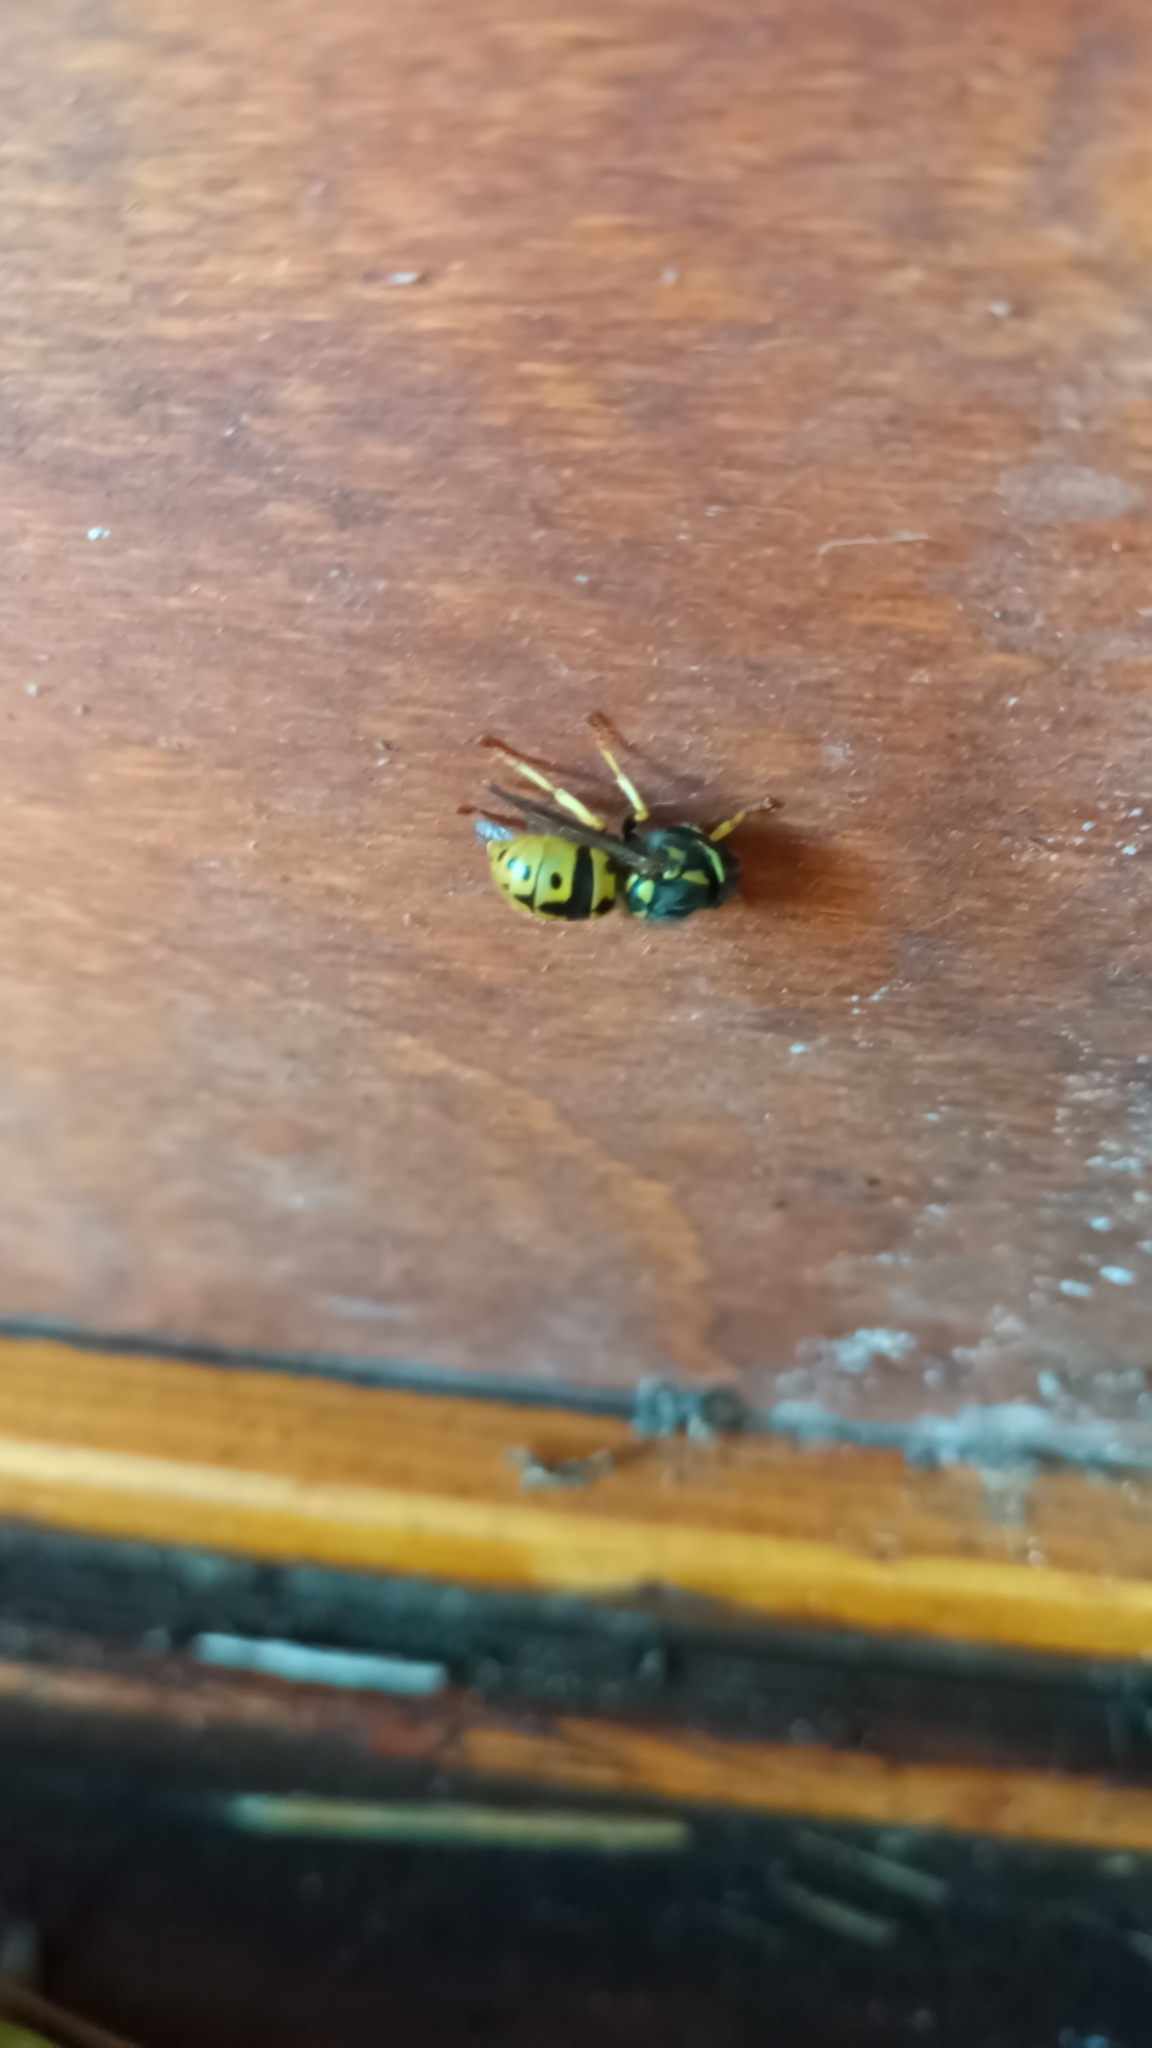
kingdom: Animalia
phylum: Arthropoda
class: Insecta
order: Hymenoptera
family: Vespidae
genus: Vespula
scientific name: Vespula germanica
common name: German wasp
